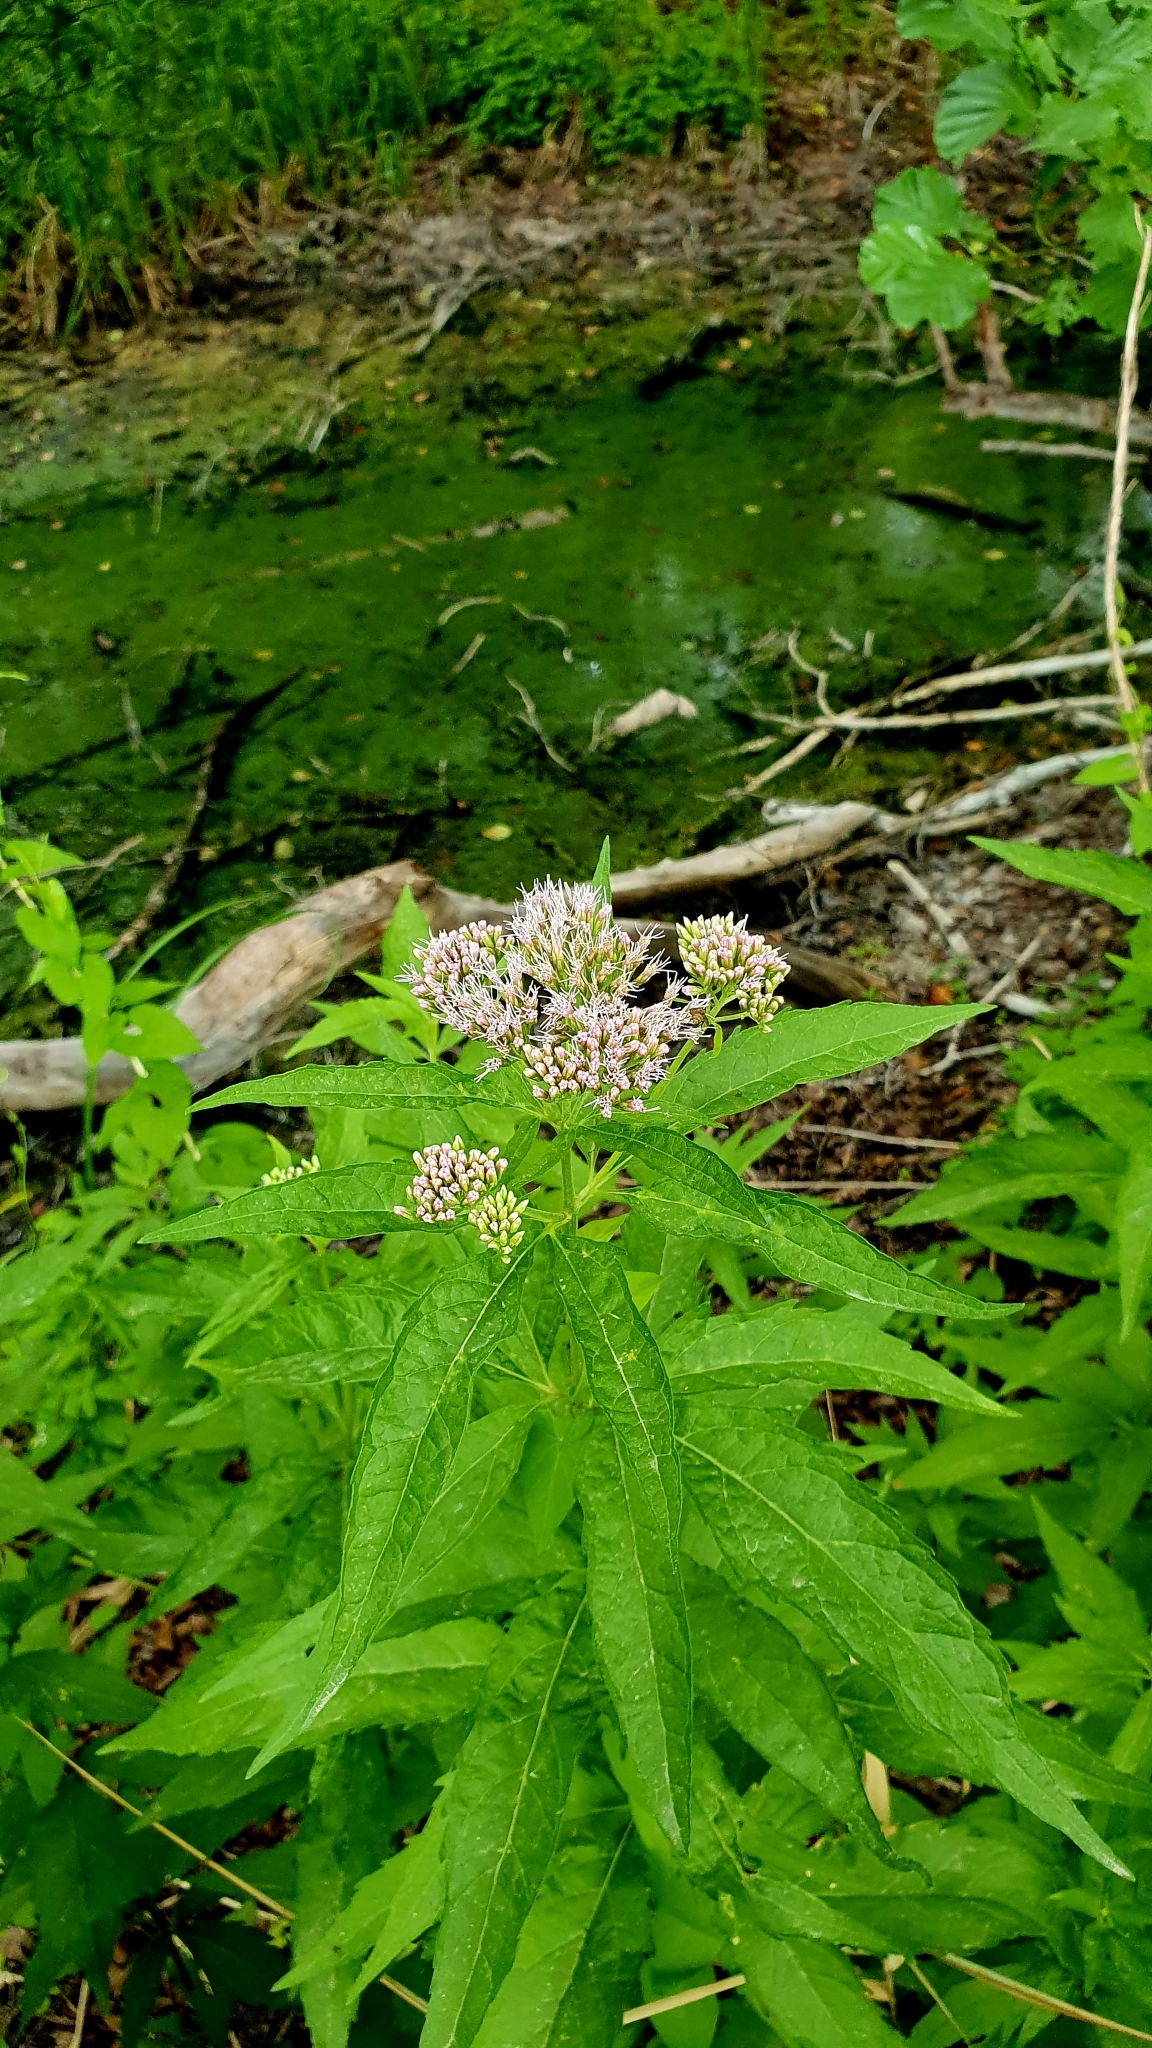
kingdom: Plantae
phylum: Tracheophyta
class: Magnoliopsida
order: Asterales
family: Asteraceae
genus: Eupatorium
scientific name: Eupatorium cannabinum
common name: Hemp-agrimony
